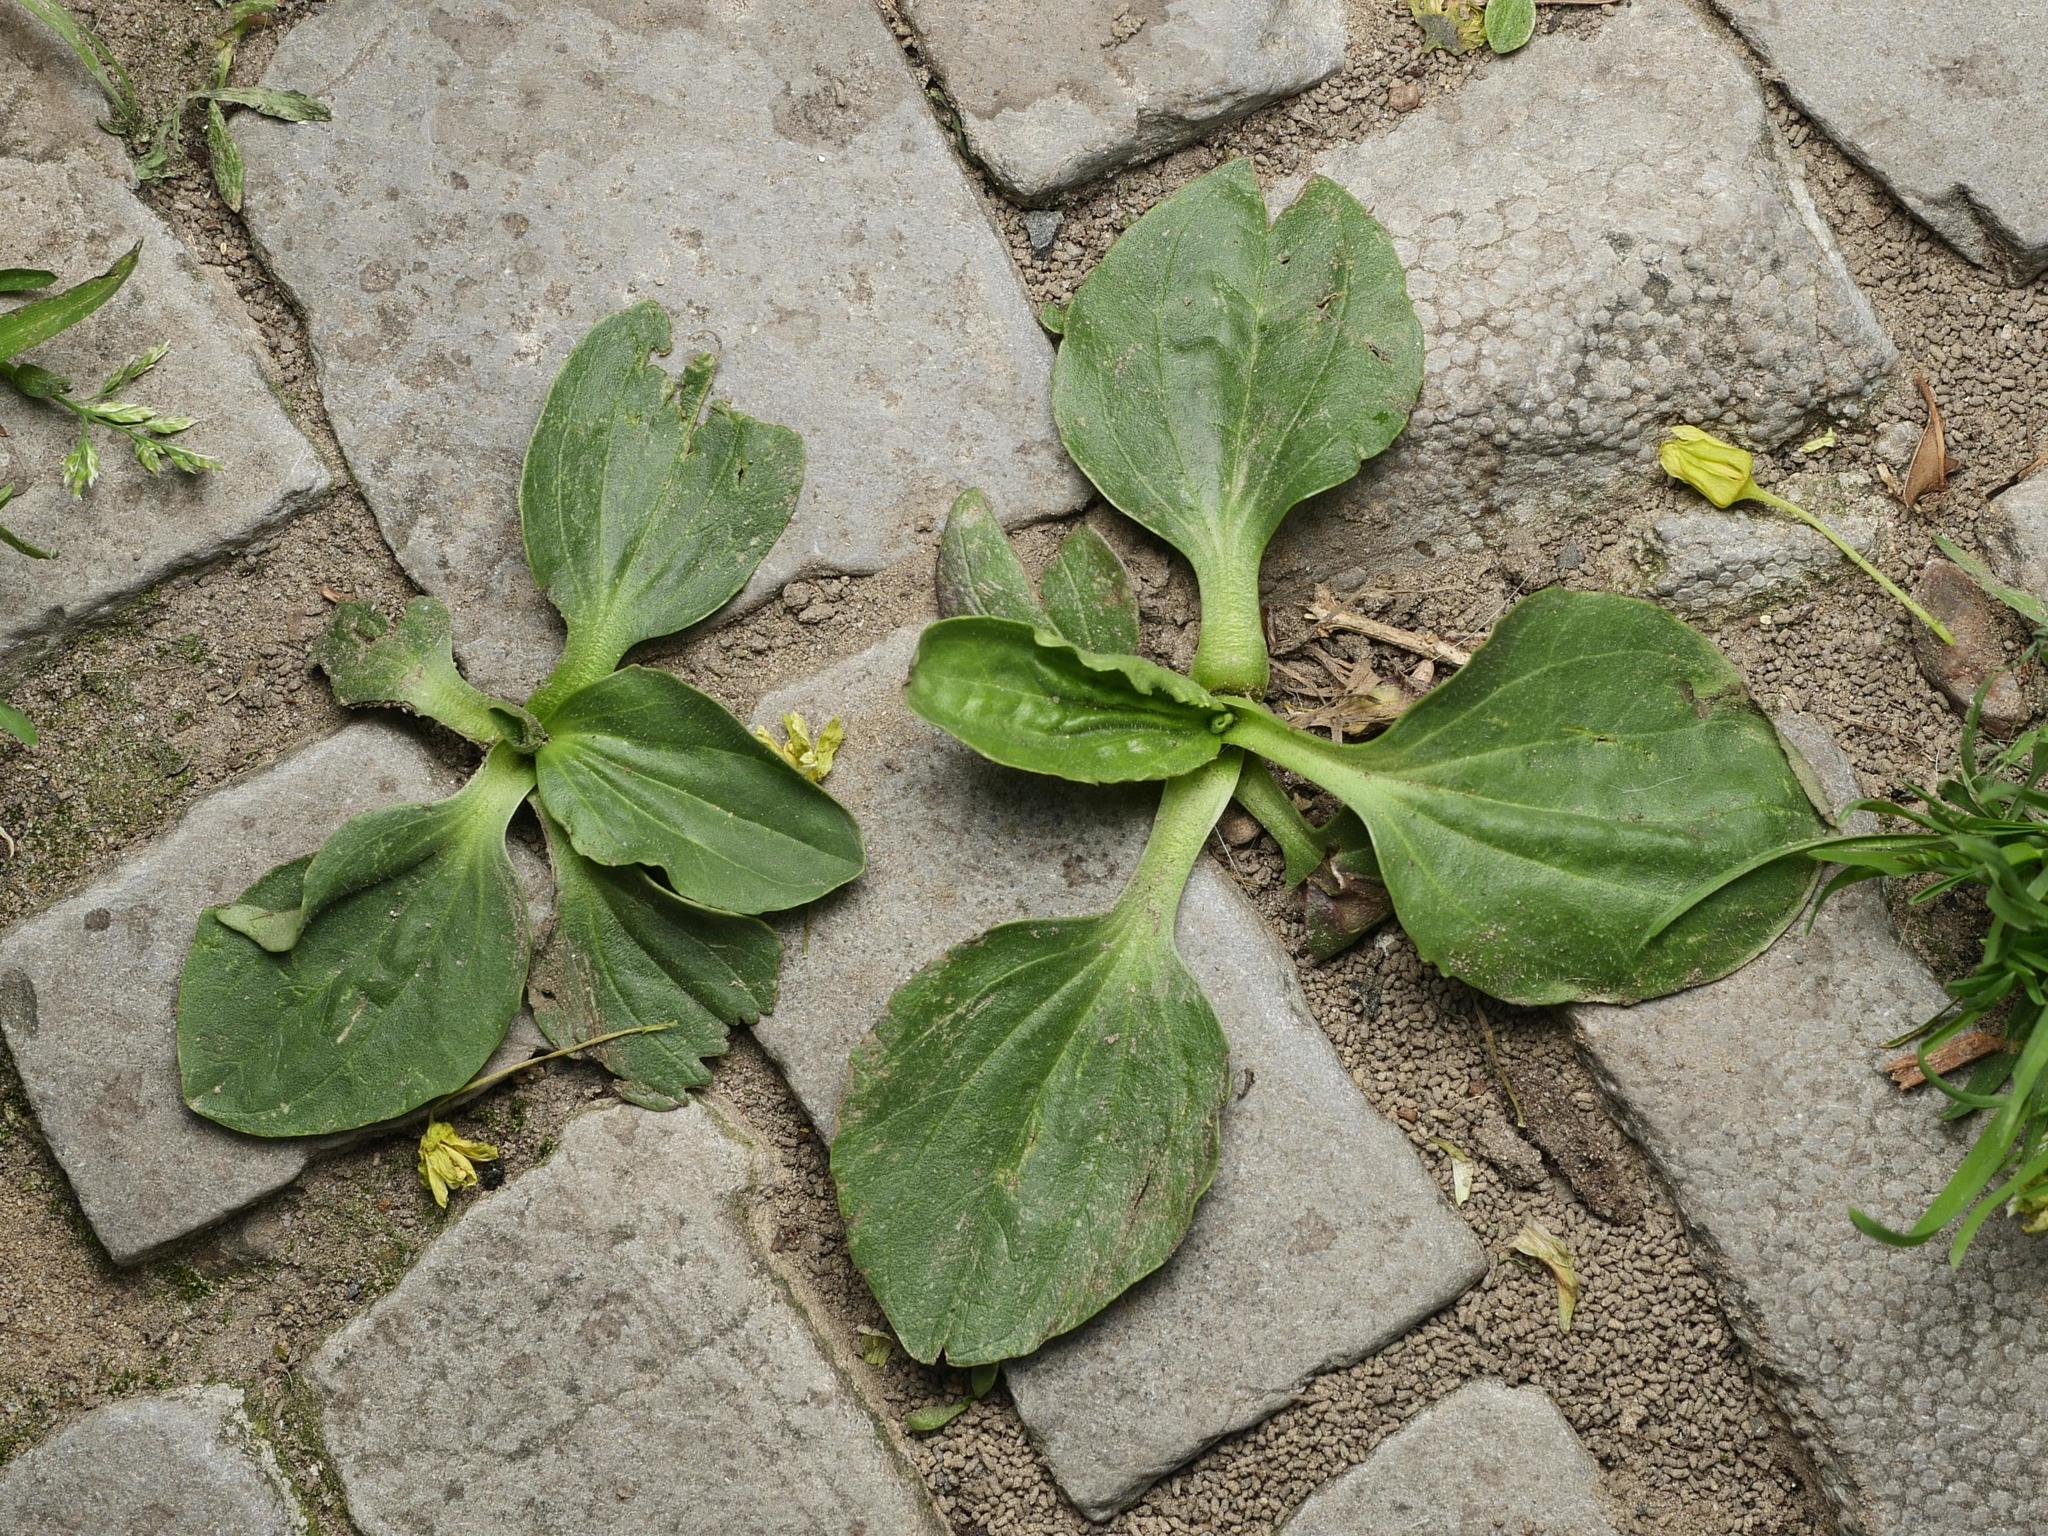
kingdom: Plantae
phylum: Tracheophyta
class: Magnoliopsida
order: Lamiales
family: Plantaginaceae
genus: Plantago
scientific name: Plantago major
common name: Common plantain
